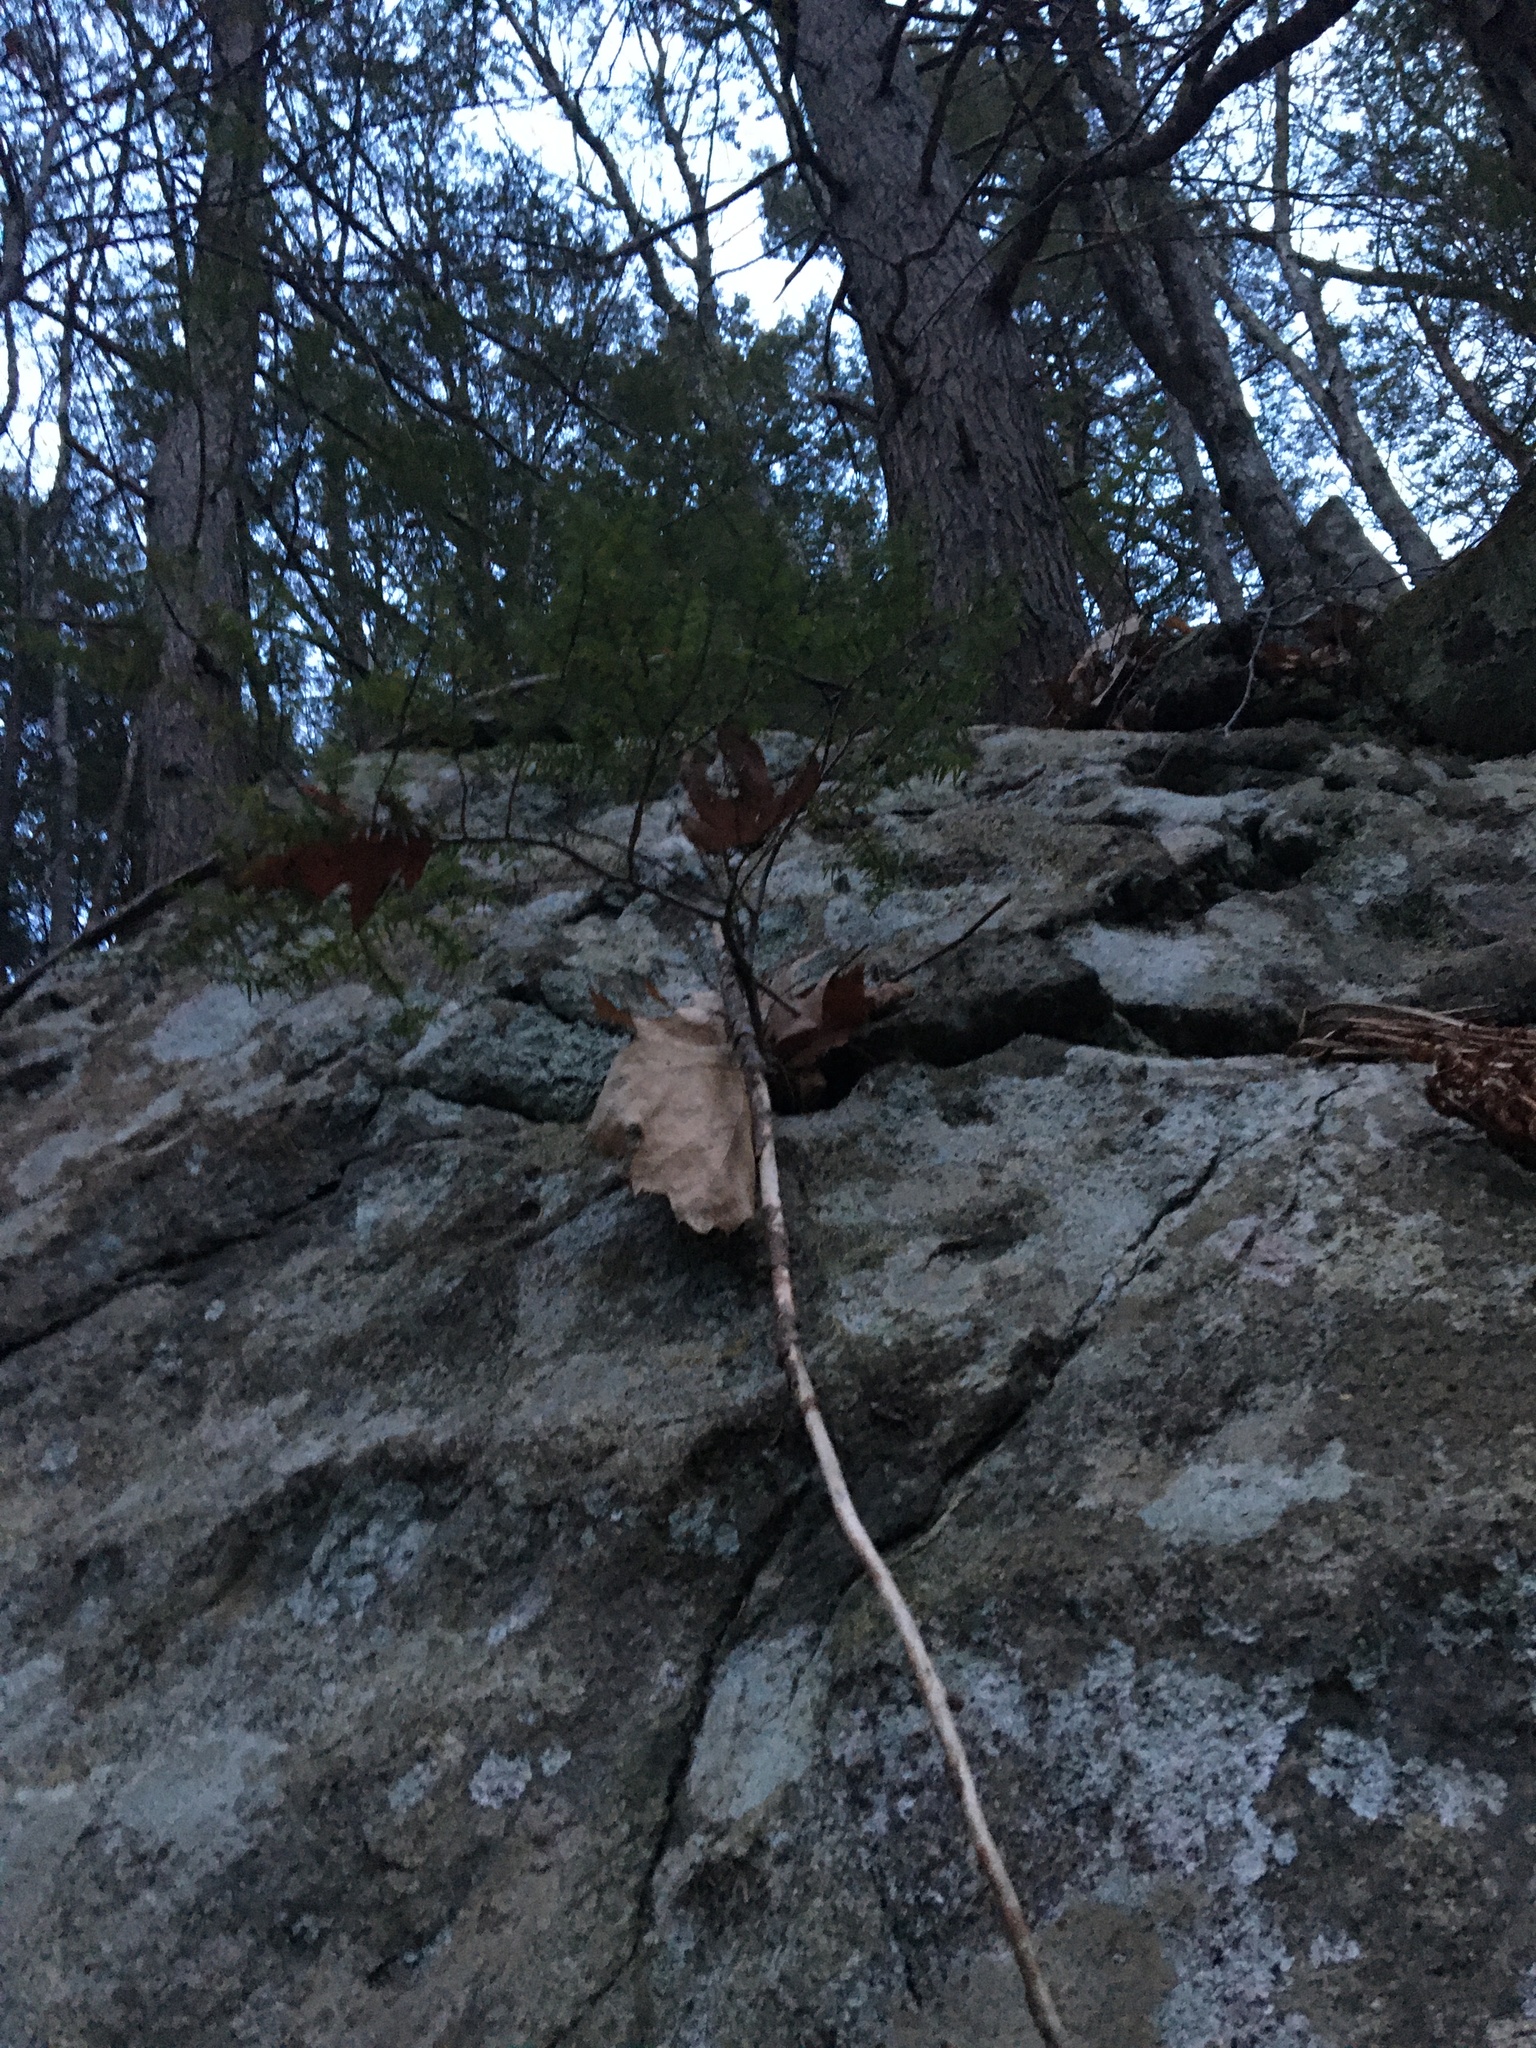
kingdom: Plantae
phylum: Tracheophyta
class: Pinopsida
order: Pinales
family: Pinaceae
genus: Tsuga
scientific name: Tsuga canadensis
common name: Eastern hemlock
